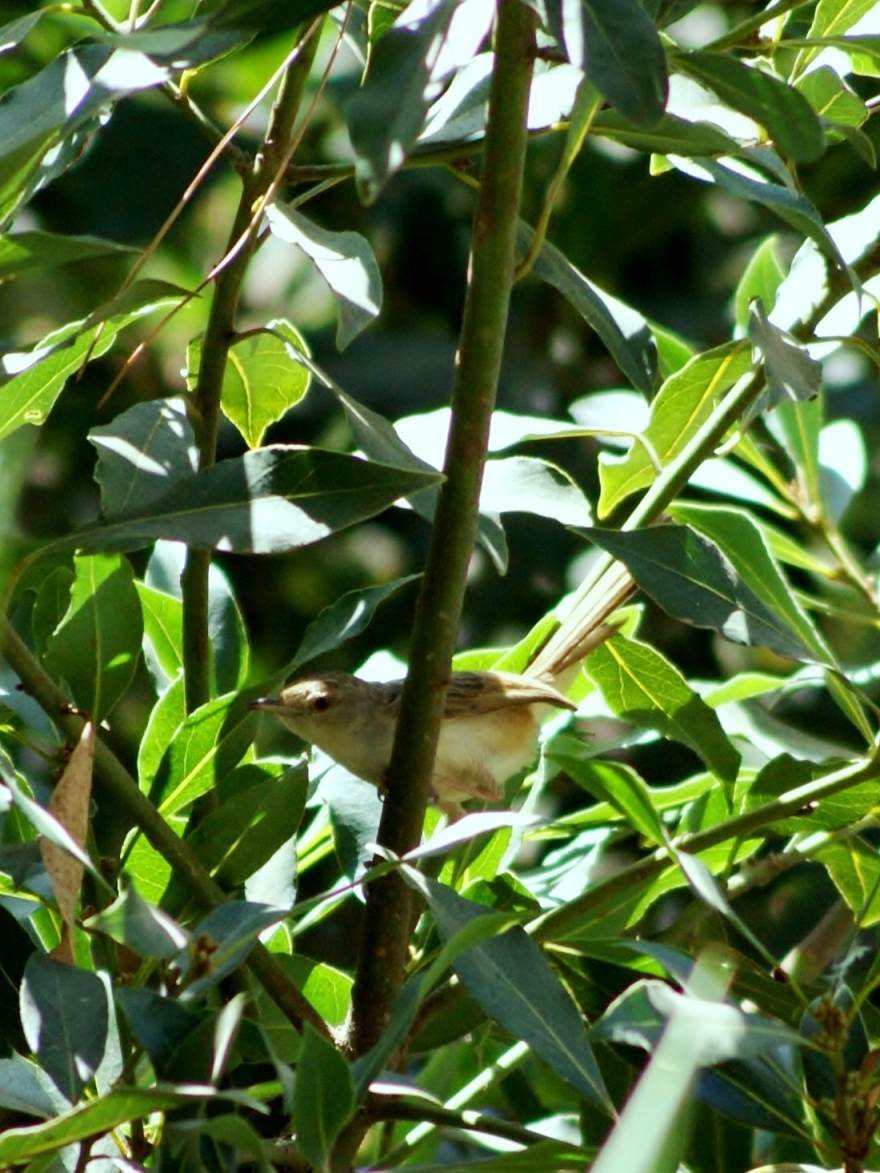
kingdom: Animalia
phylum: Chordata
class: Aves
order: Passeriformes
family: Cisticolidae
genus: Prinia
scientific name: Prinia gracilis
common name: Graceful prinia
